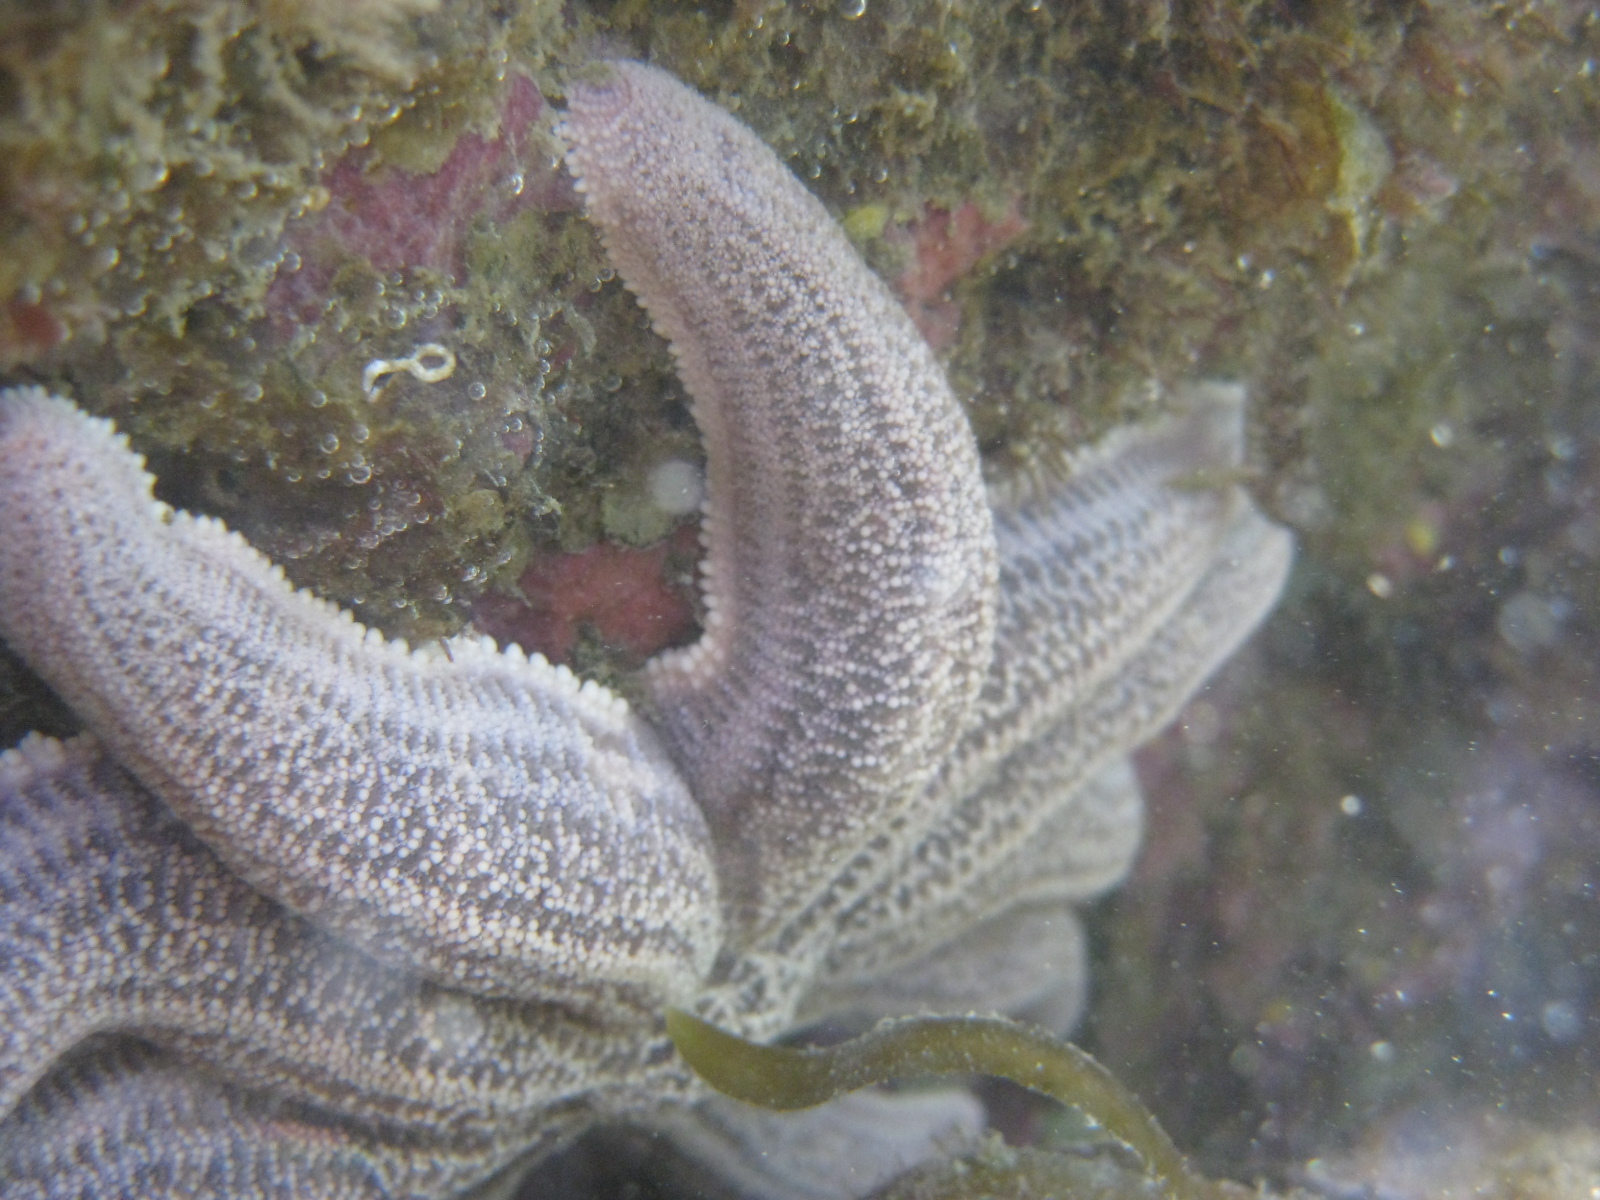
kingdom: Animalia
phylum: Echinodermata
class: Asteroidea
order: Forcipulatida
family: Stichasteridae
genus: Stichaster
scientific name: Stichaster australis
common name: Reef starfish
